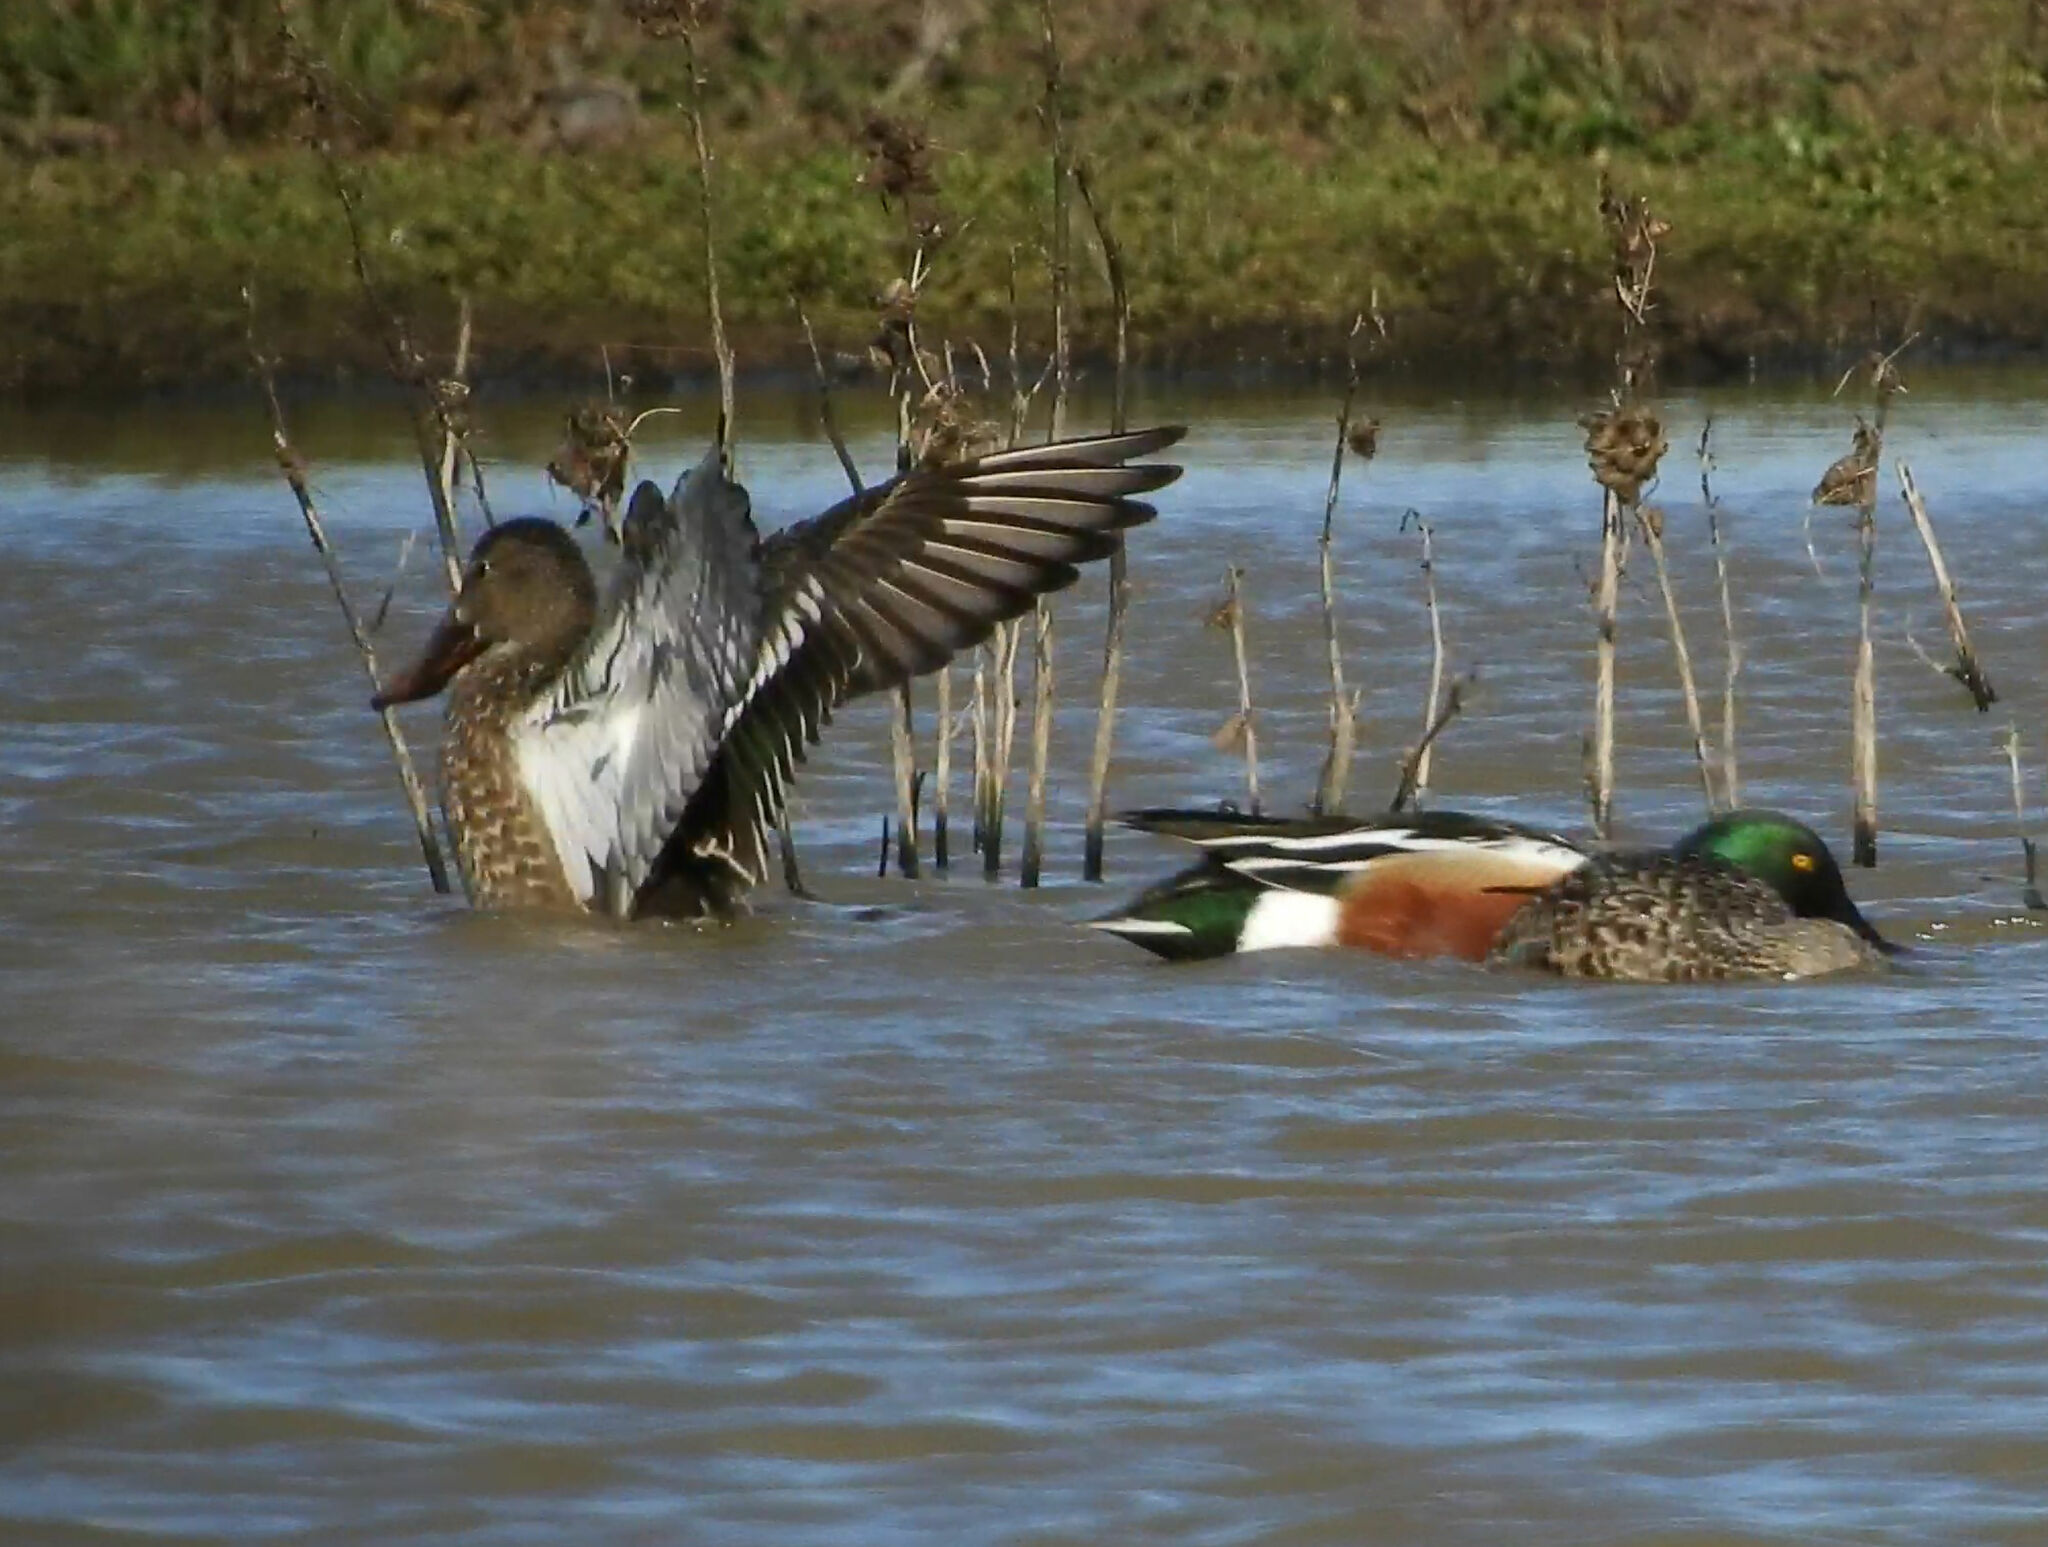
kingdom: Animalia
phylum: Chordata
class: Aves
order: Anseriformes
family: Anatidae
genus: Spatula
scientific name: Spatula clypeata
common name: Northern shoveler
